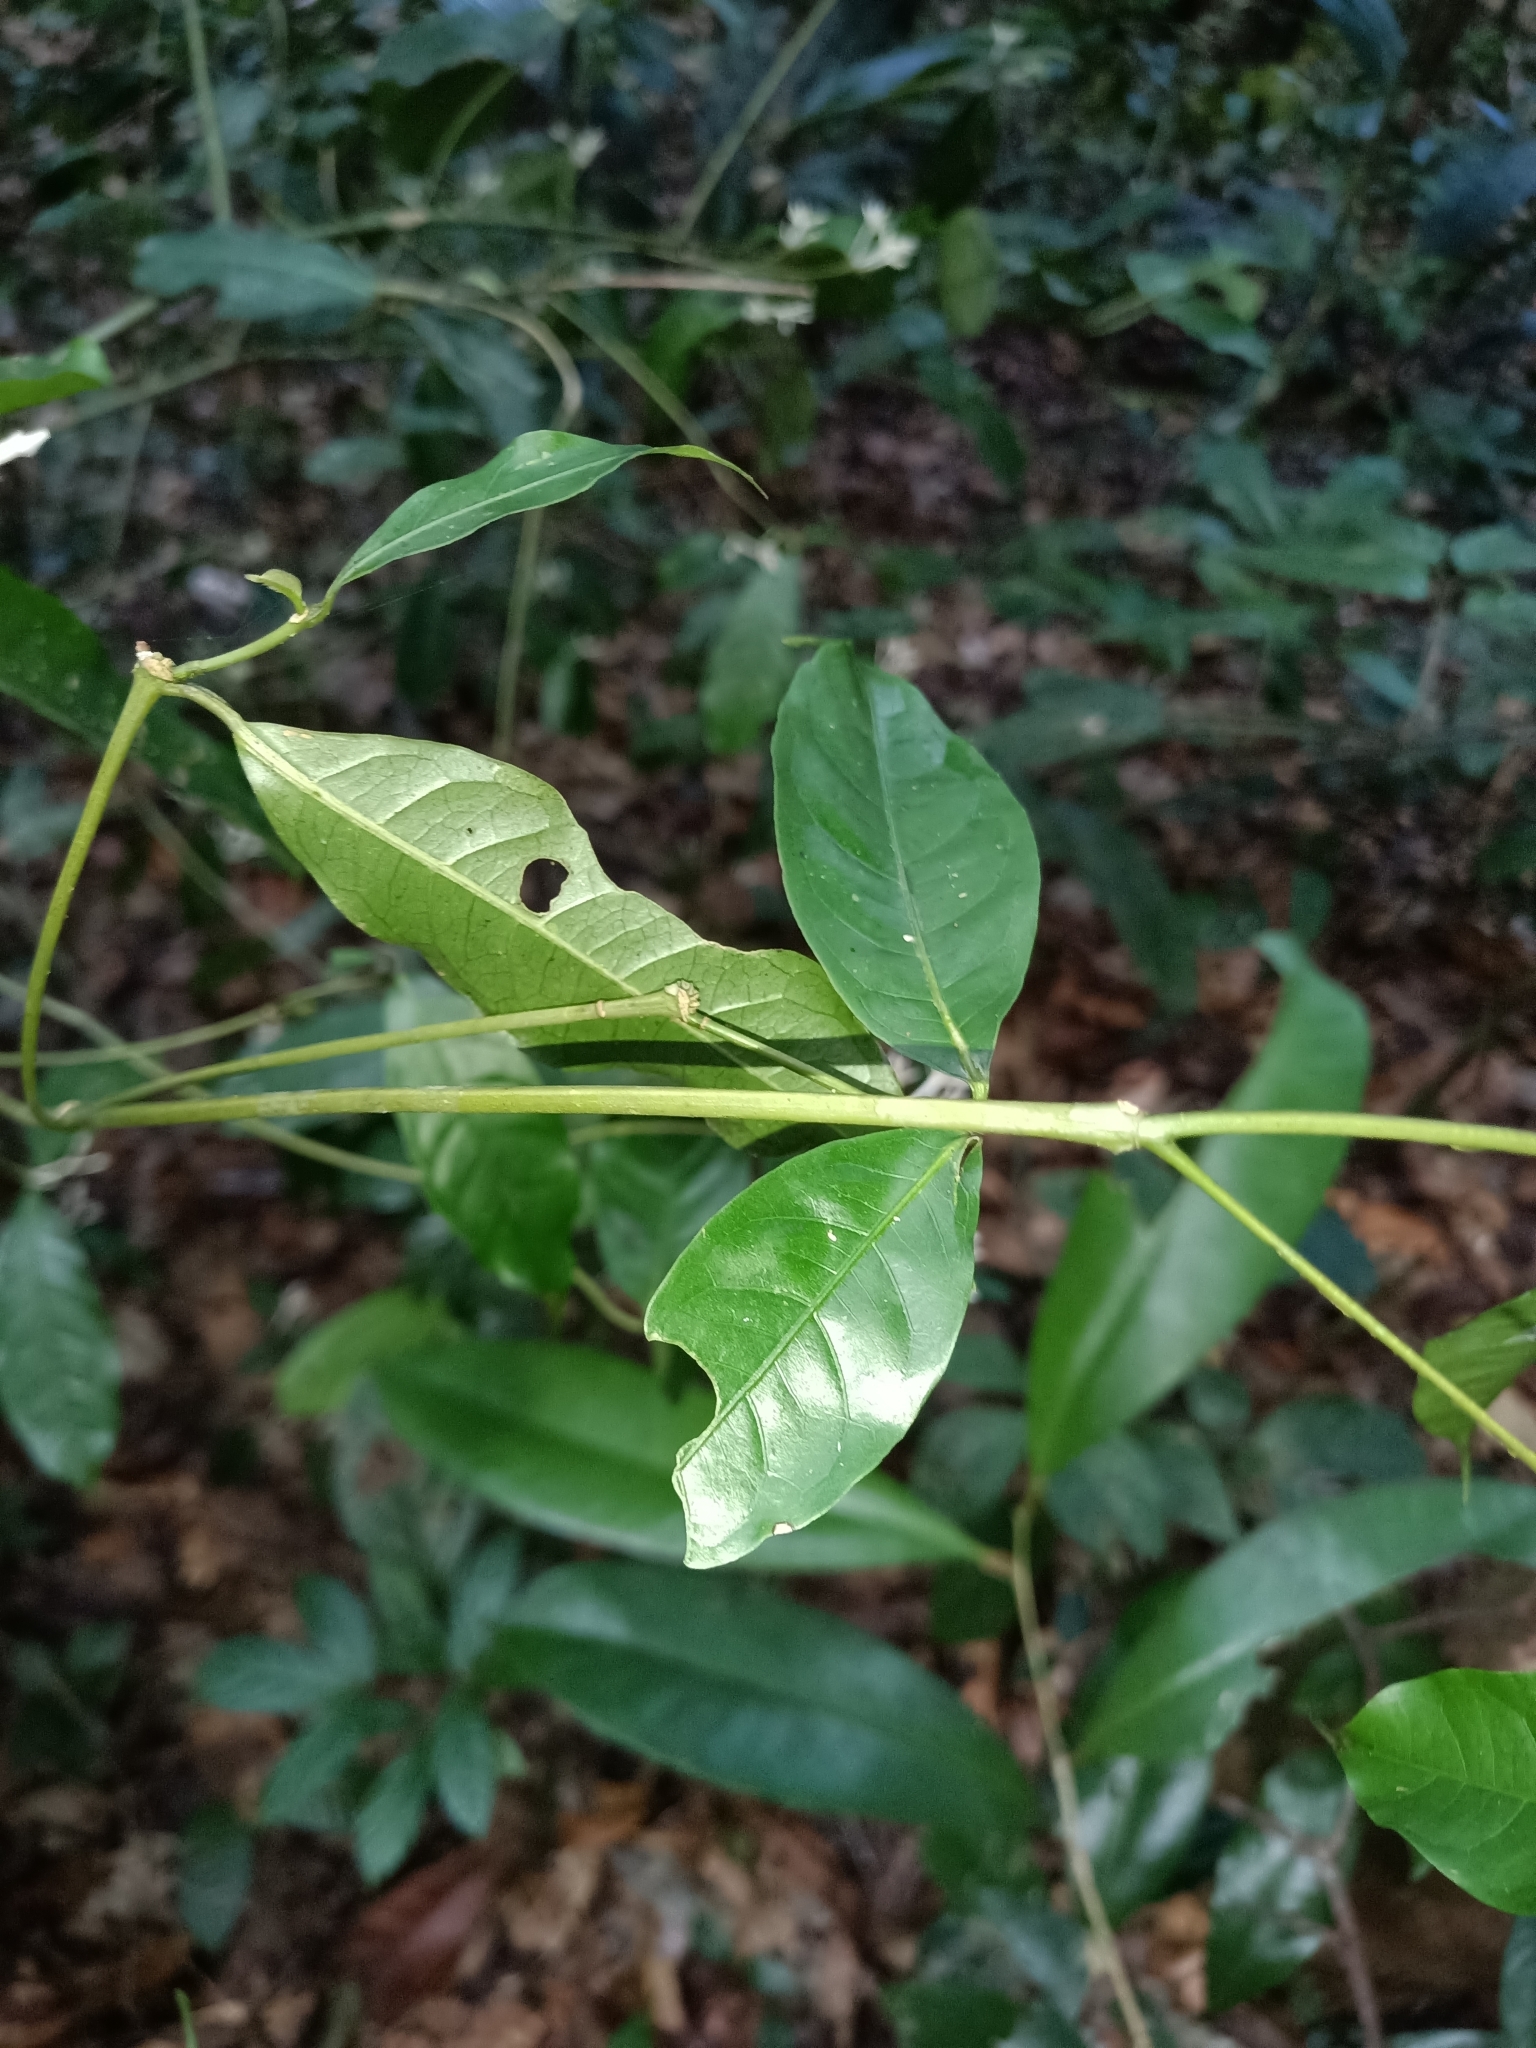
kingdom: Plantae
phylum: Tracheophyta
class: Magnoliopsida
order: Gentianales
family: Rubiaceae
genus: Faramea
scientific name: Faramea corymbosa
